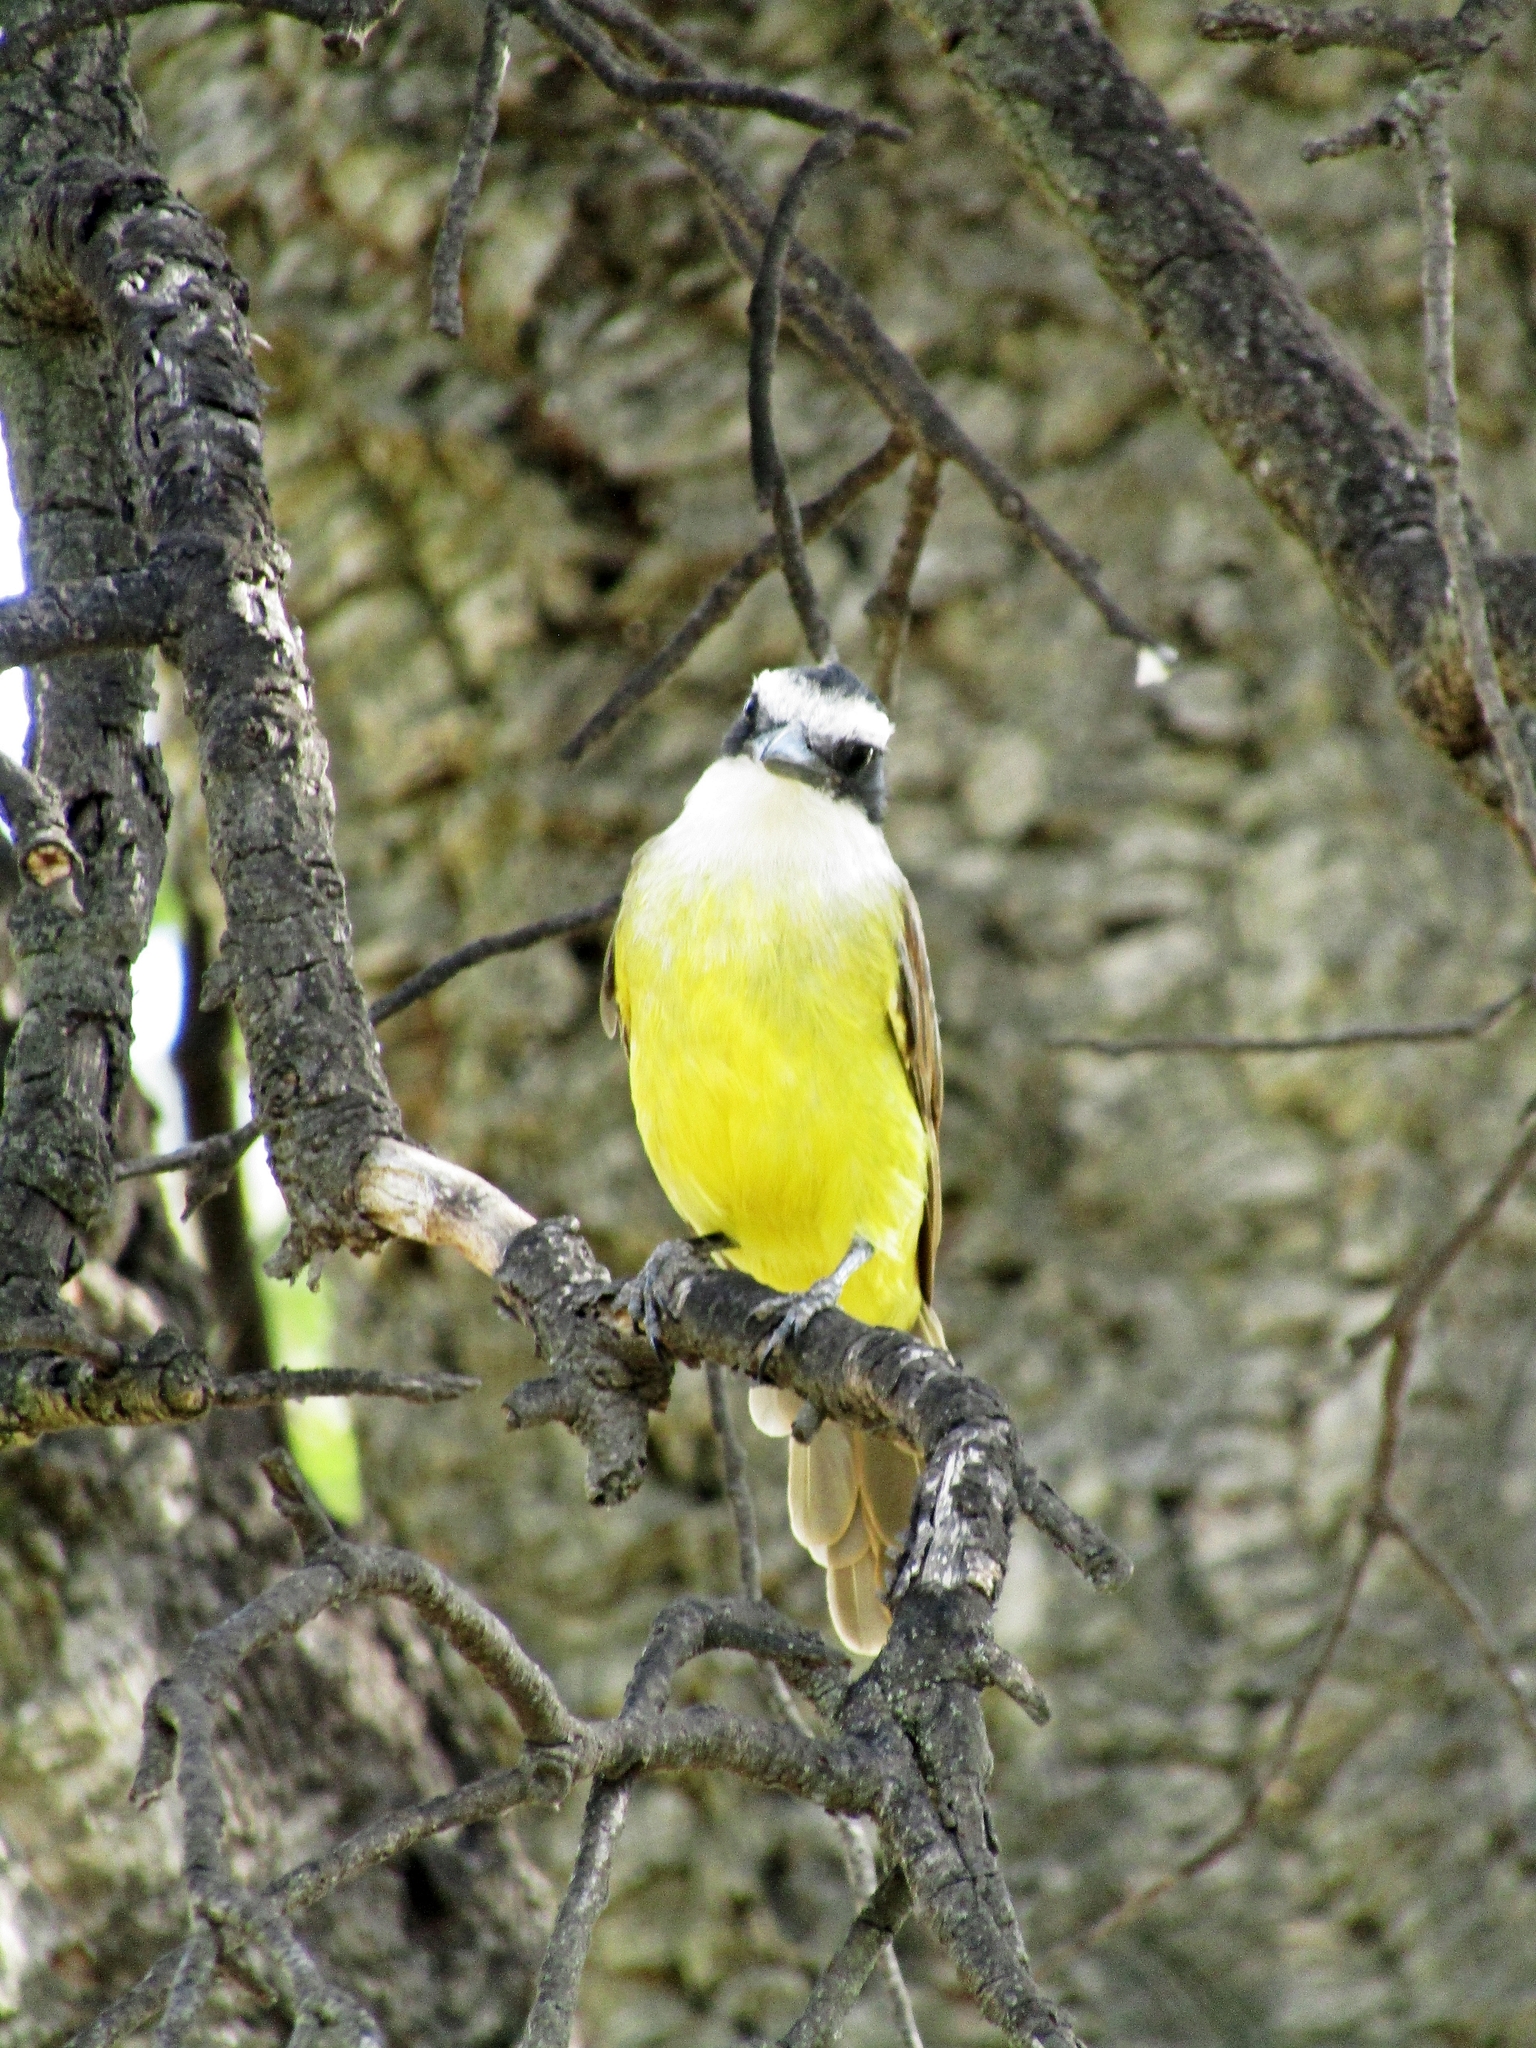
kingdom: Animalia
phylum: Chordata
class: Aves
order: Passeriformes
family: Tyrannidae
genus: Pitangus
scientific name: Pitangus sulphuratus
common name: Great kiskadee
